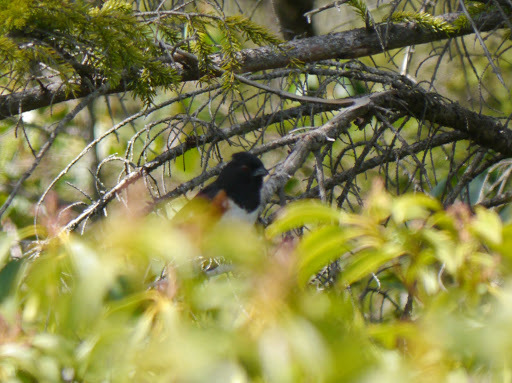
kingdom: Animalia
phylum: Chordata
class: Aves
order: Passeriformes
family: Passerellidae
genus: Pipilo
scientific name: Pipilo erythrophthalmus
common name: Eastern towhee
